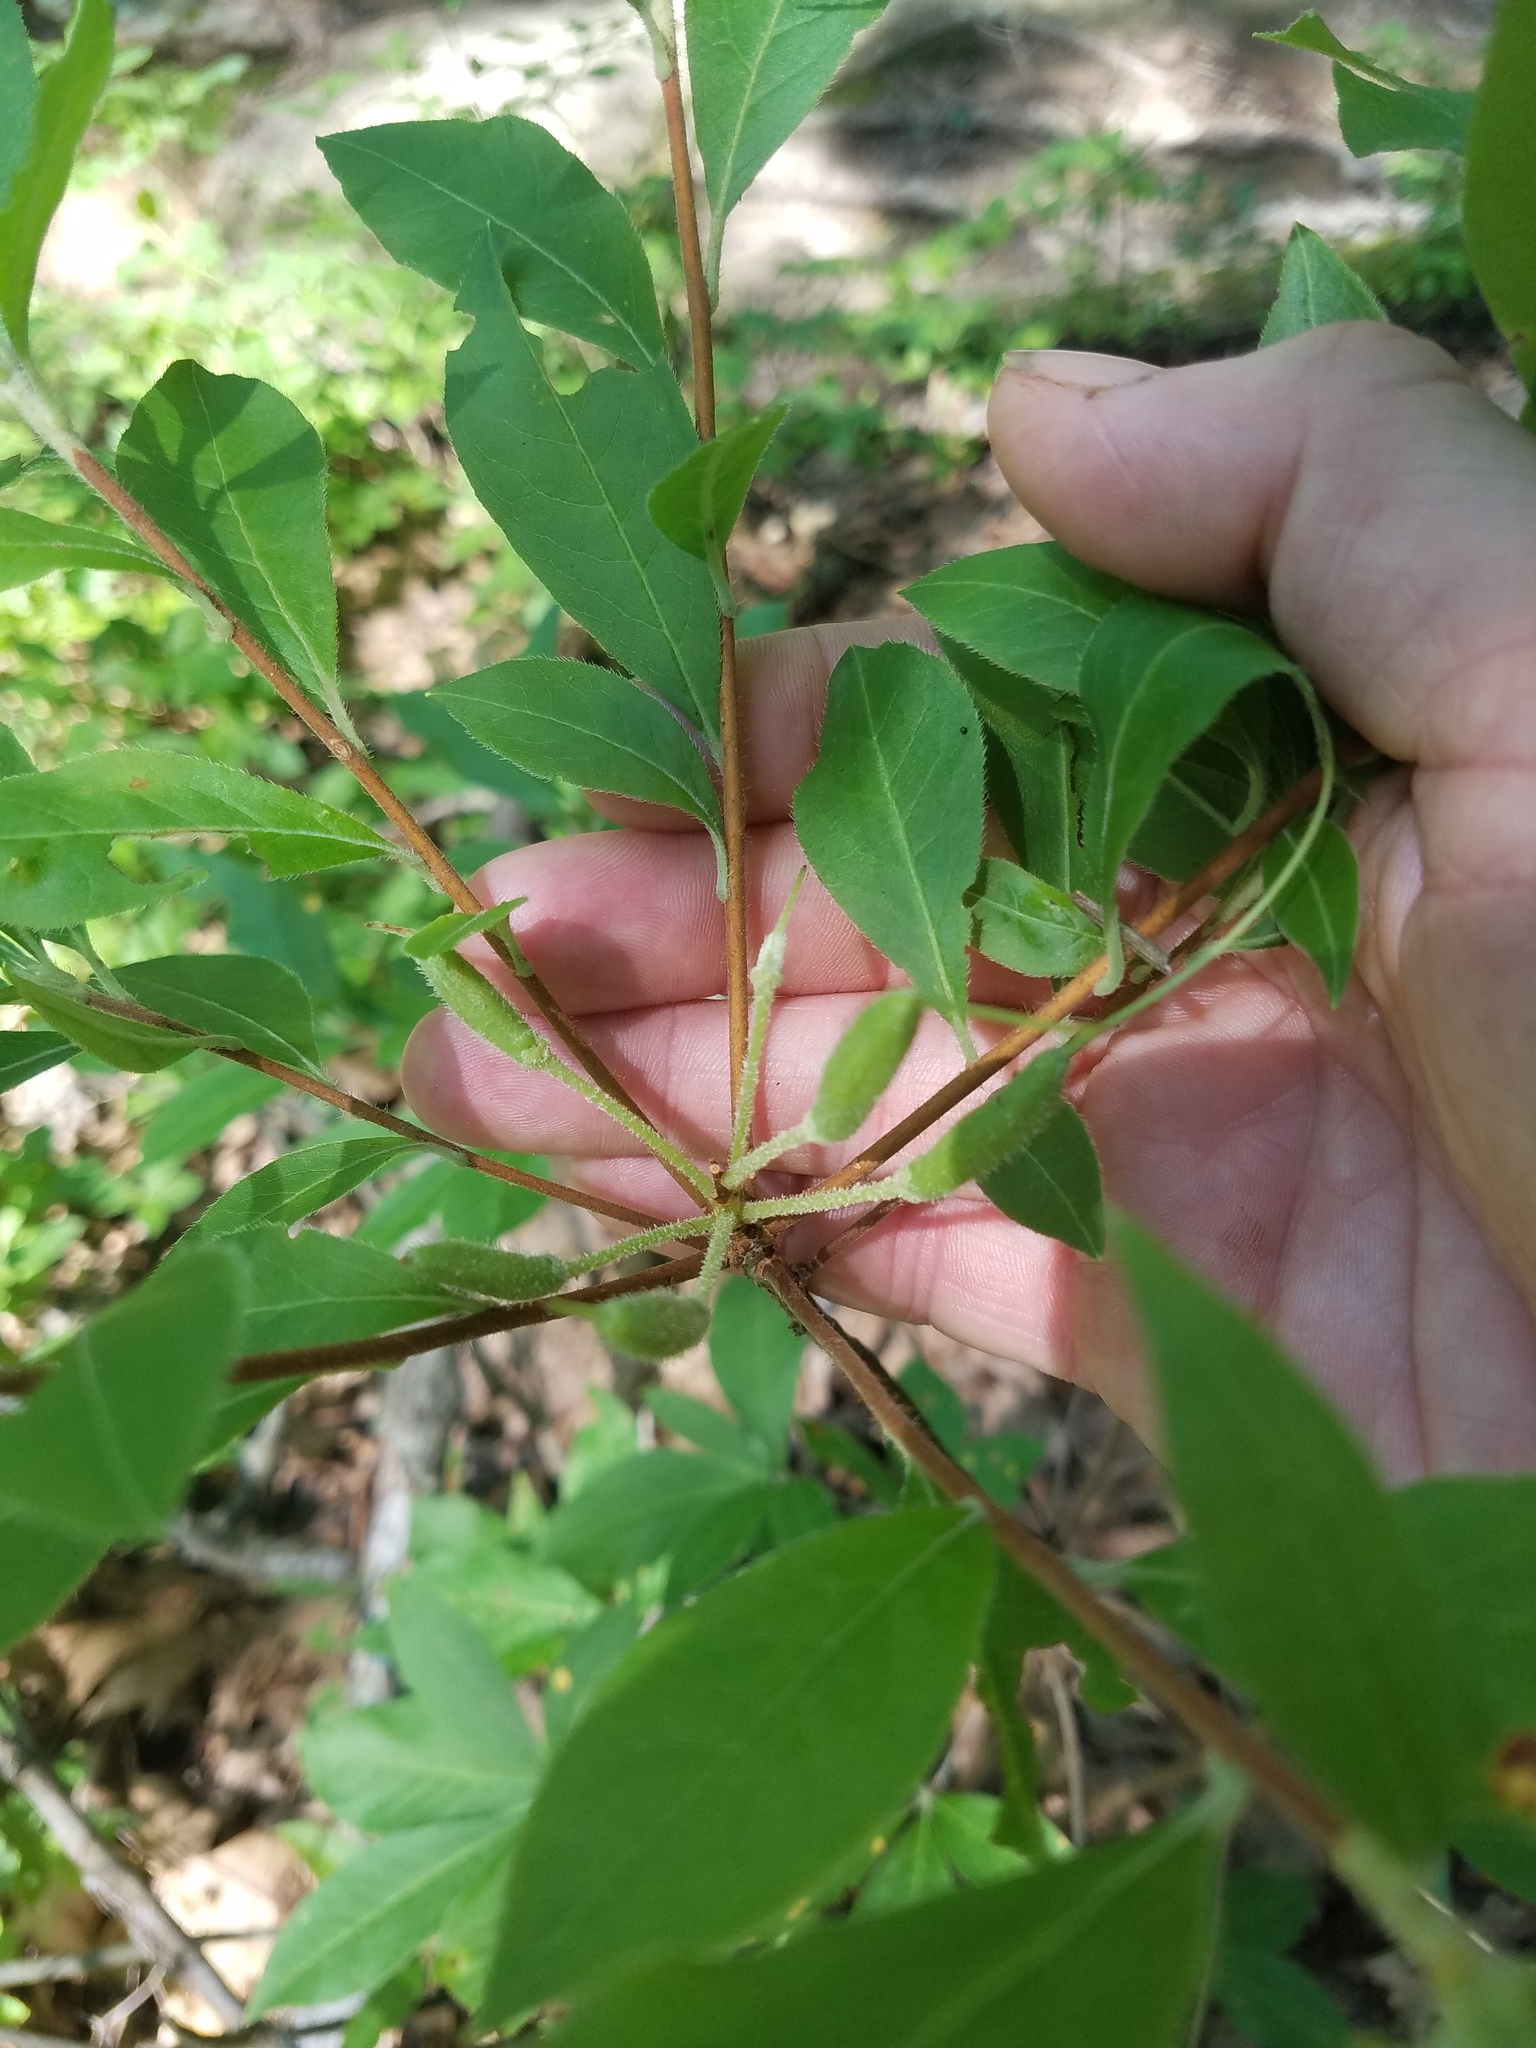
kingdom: Plantae
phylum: Tracheophyta
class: Magnoliopsida
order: Ericales
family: Ericaceae
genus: Rhododendron
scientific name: Rhododendron roseum
